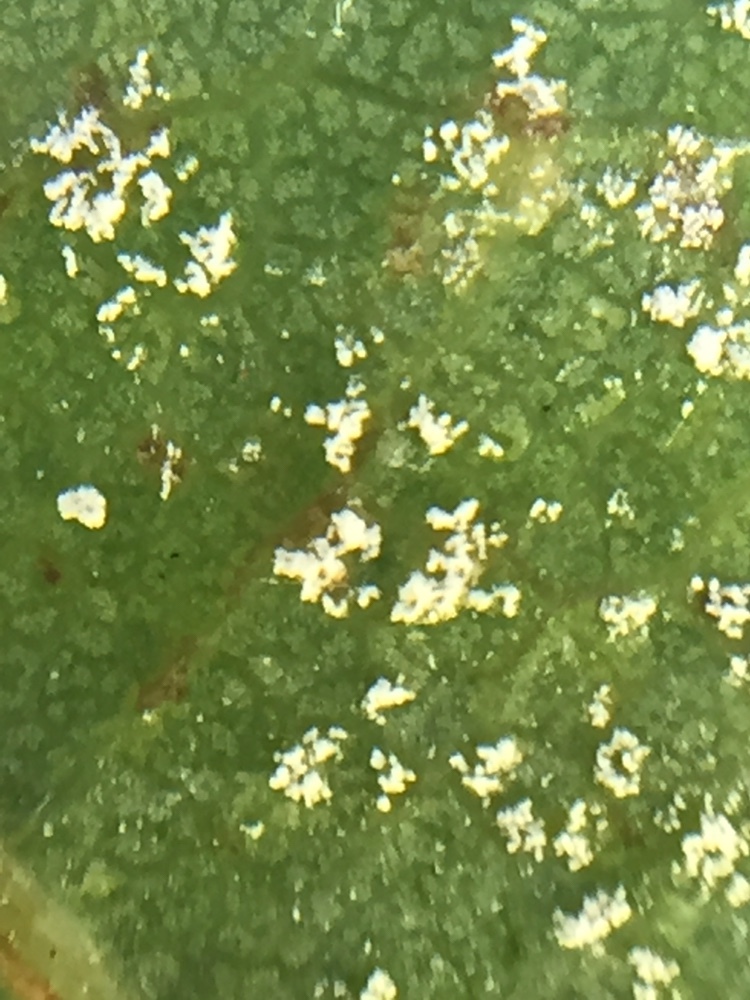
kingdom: Fungi
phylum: Basidiomycota
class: Exobasidiomycetes
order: Microstromatales
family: Microstromataceae
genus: Microstroma
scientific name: Microstroma album
